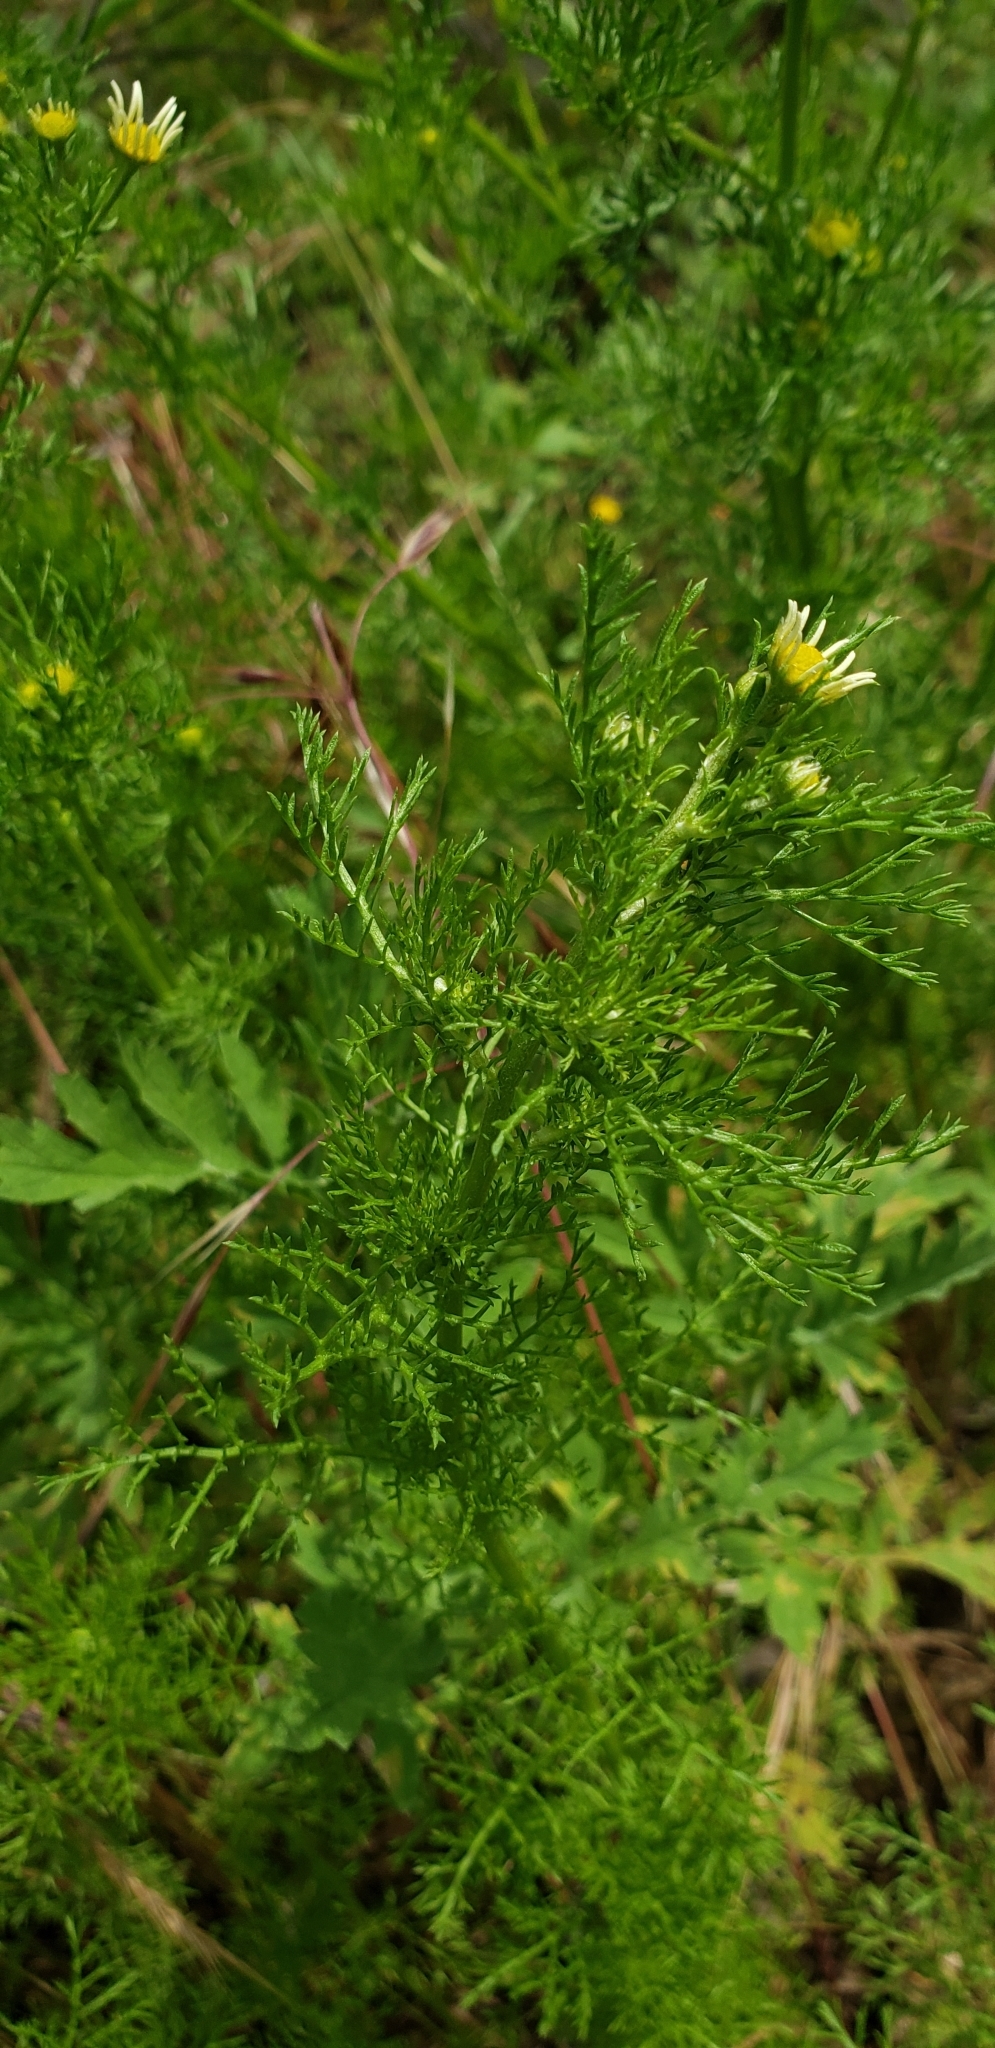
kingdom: Plantae
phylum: Tracheophyta
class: Magnoliopsida
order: Asterales
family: Asteraceae
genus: Anthemis
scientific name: Anthemis cotula
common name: Stinking chamomile
